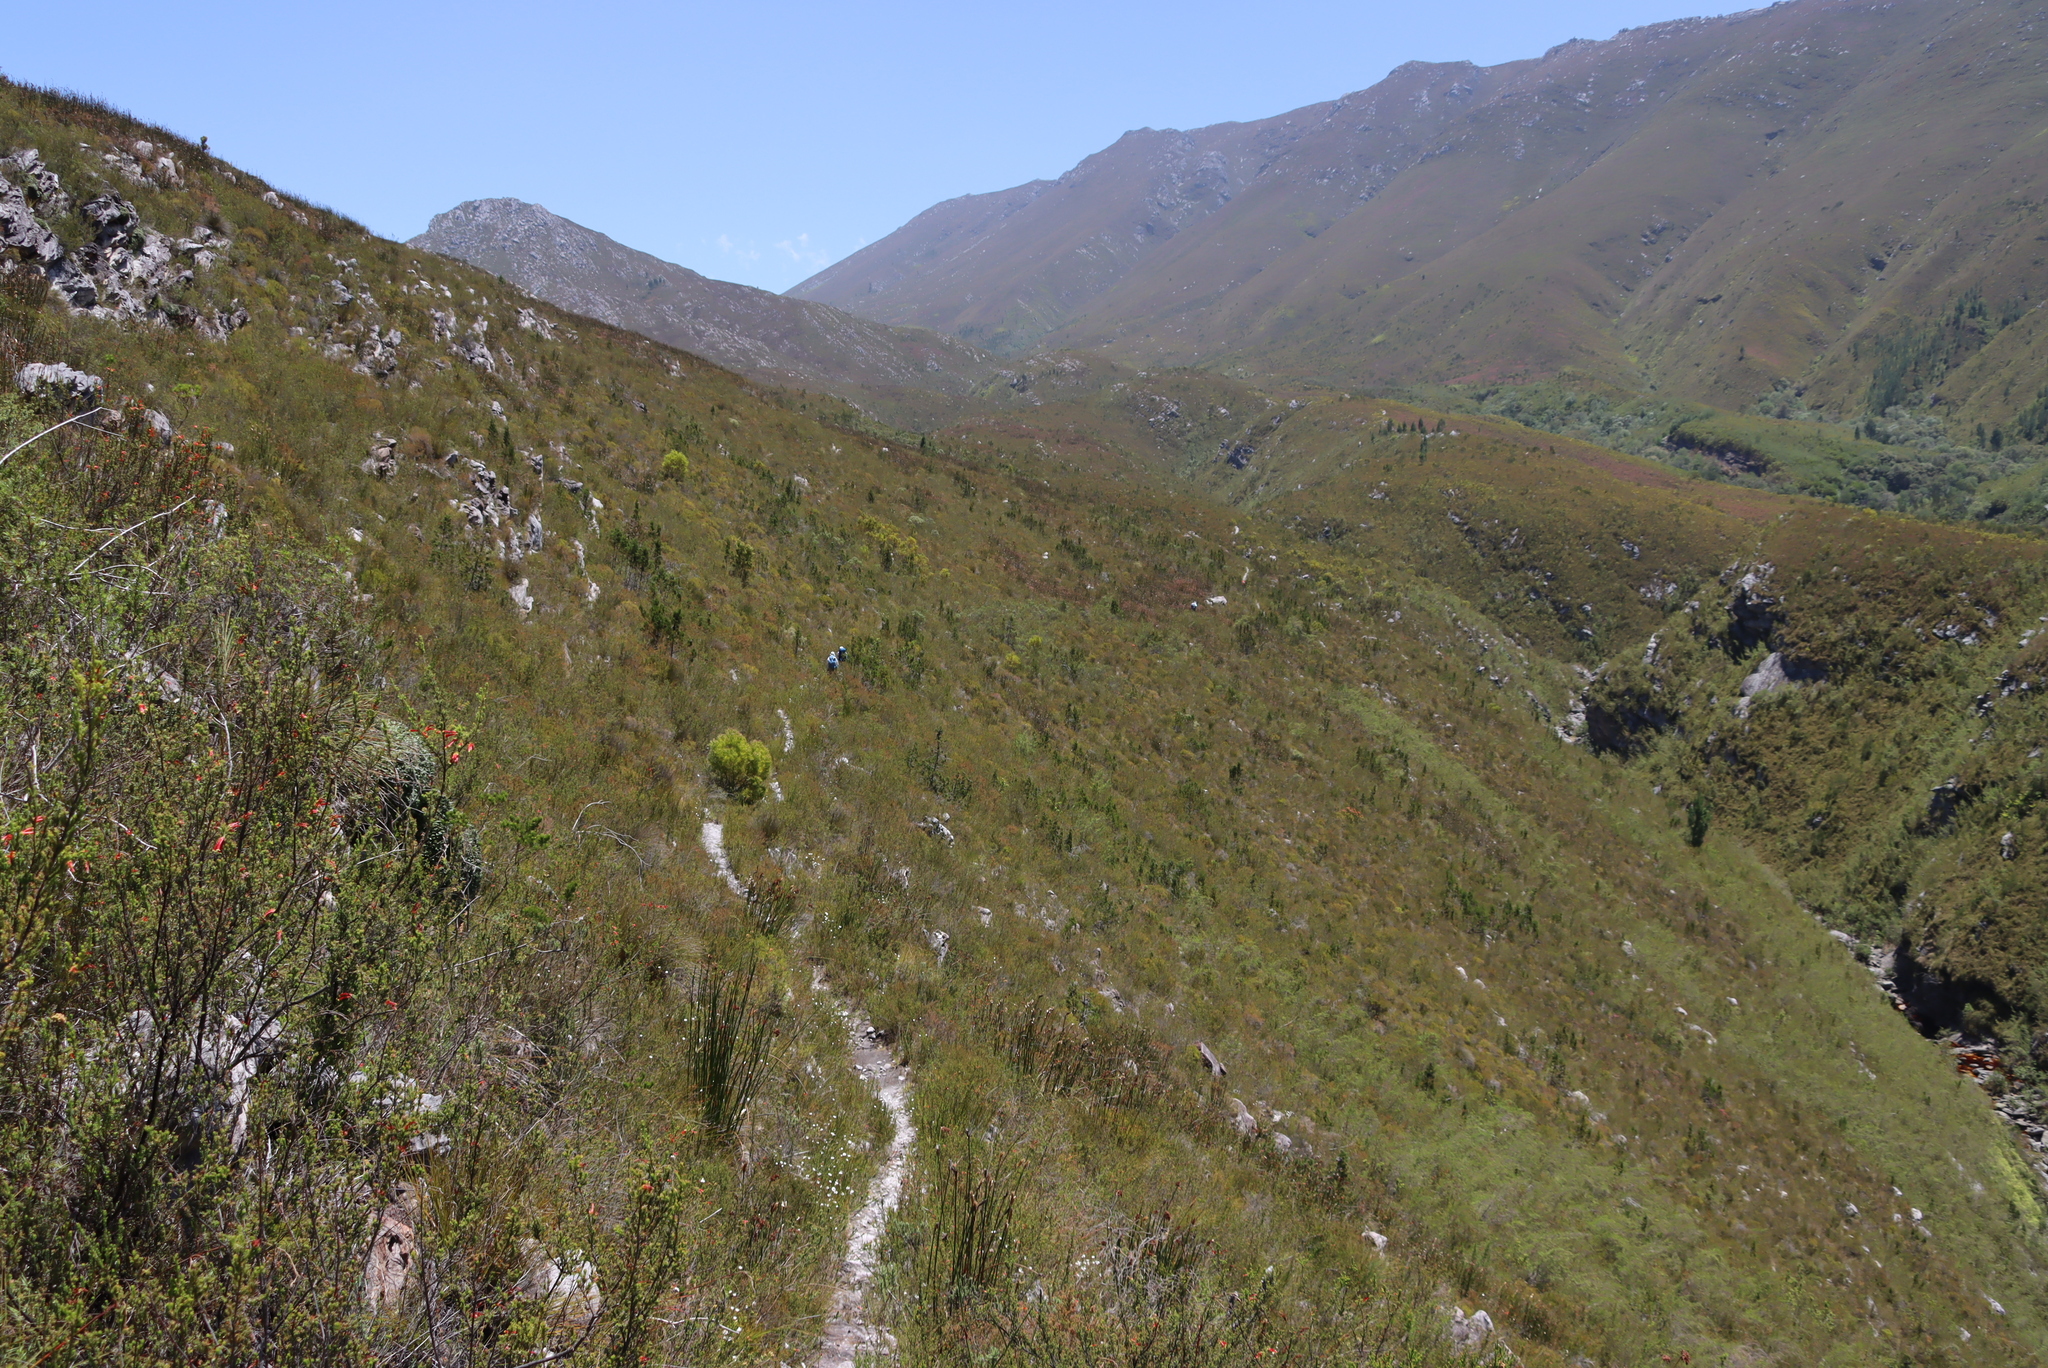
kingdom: Plantae
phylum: Tracheophyta
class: Pinopsida
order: Pinales
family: Cupressaceae
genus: Widdringtonia
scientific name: Widdringtonia nodiflora
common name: Cape cypress
